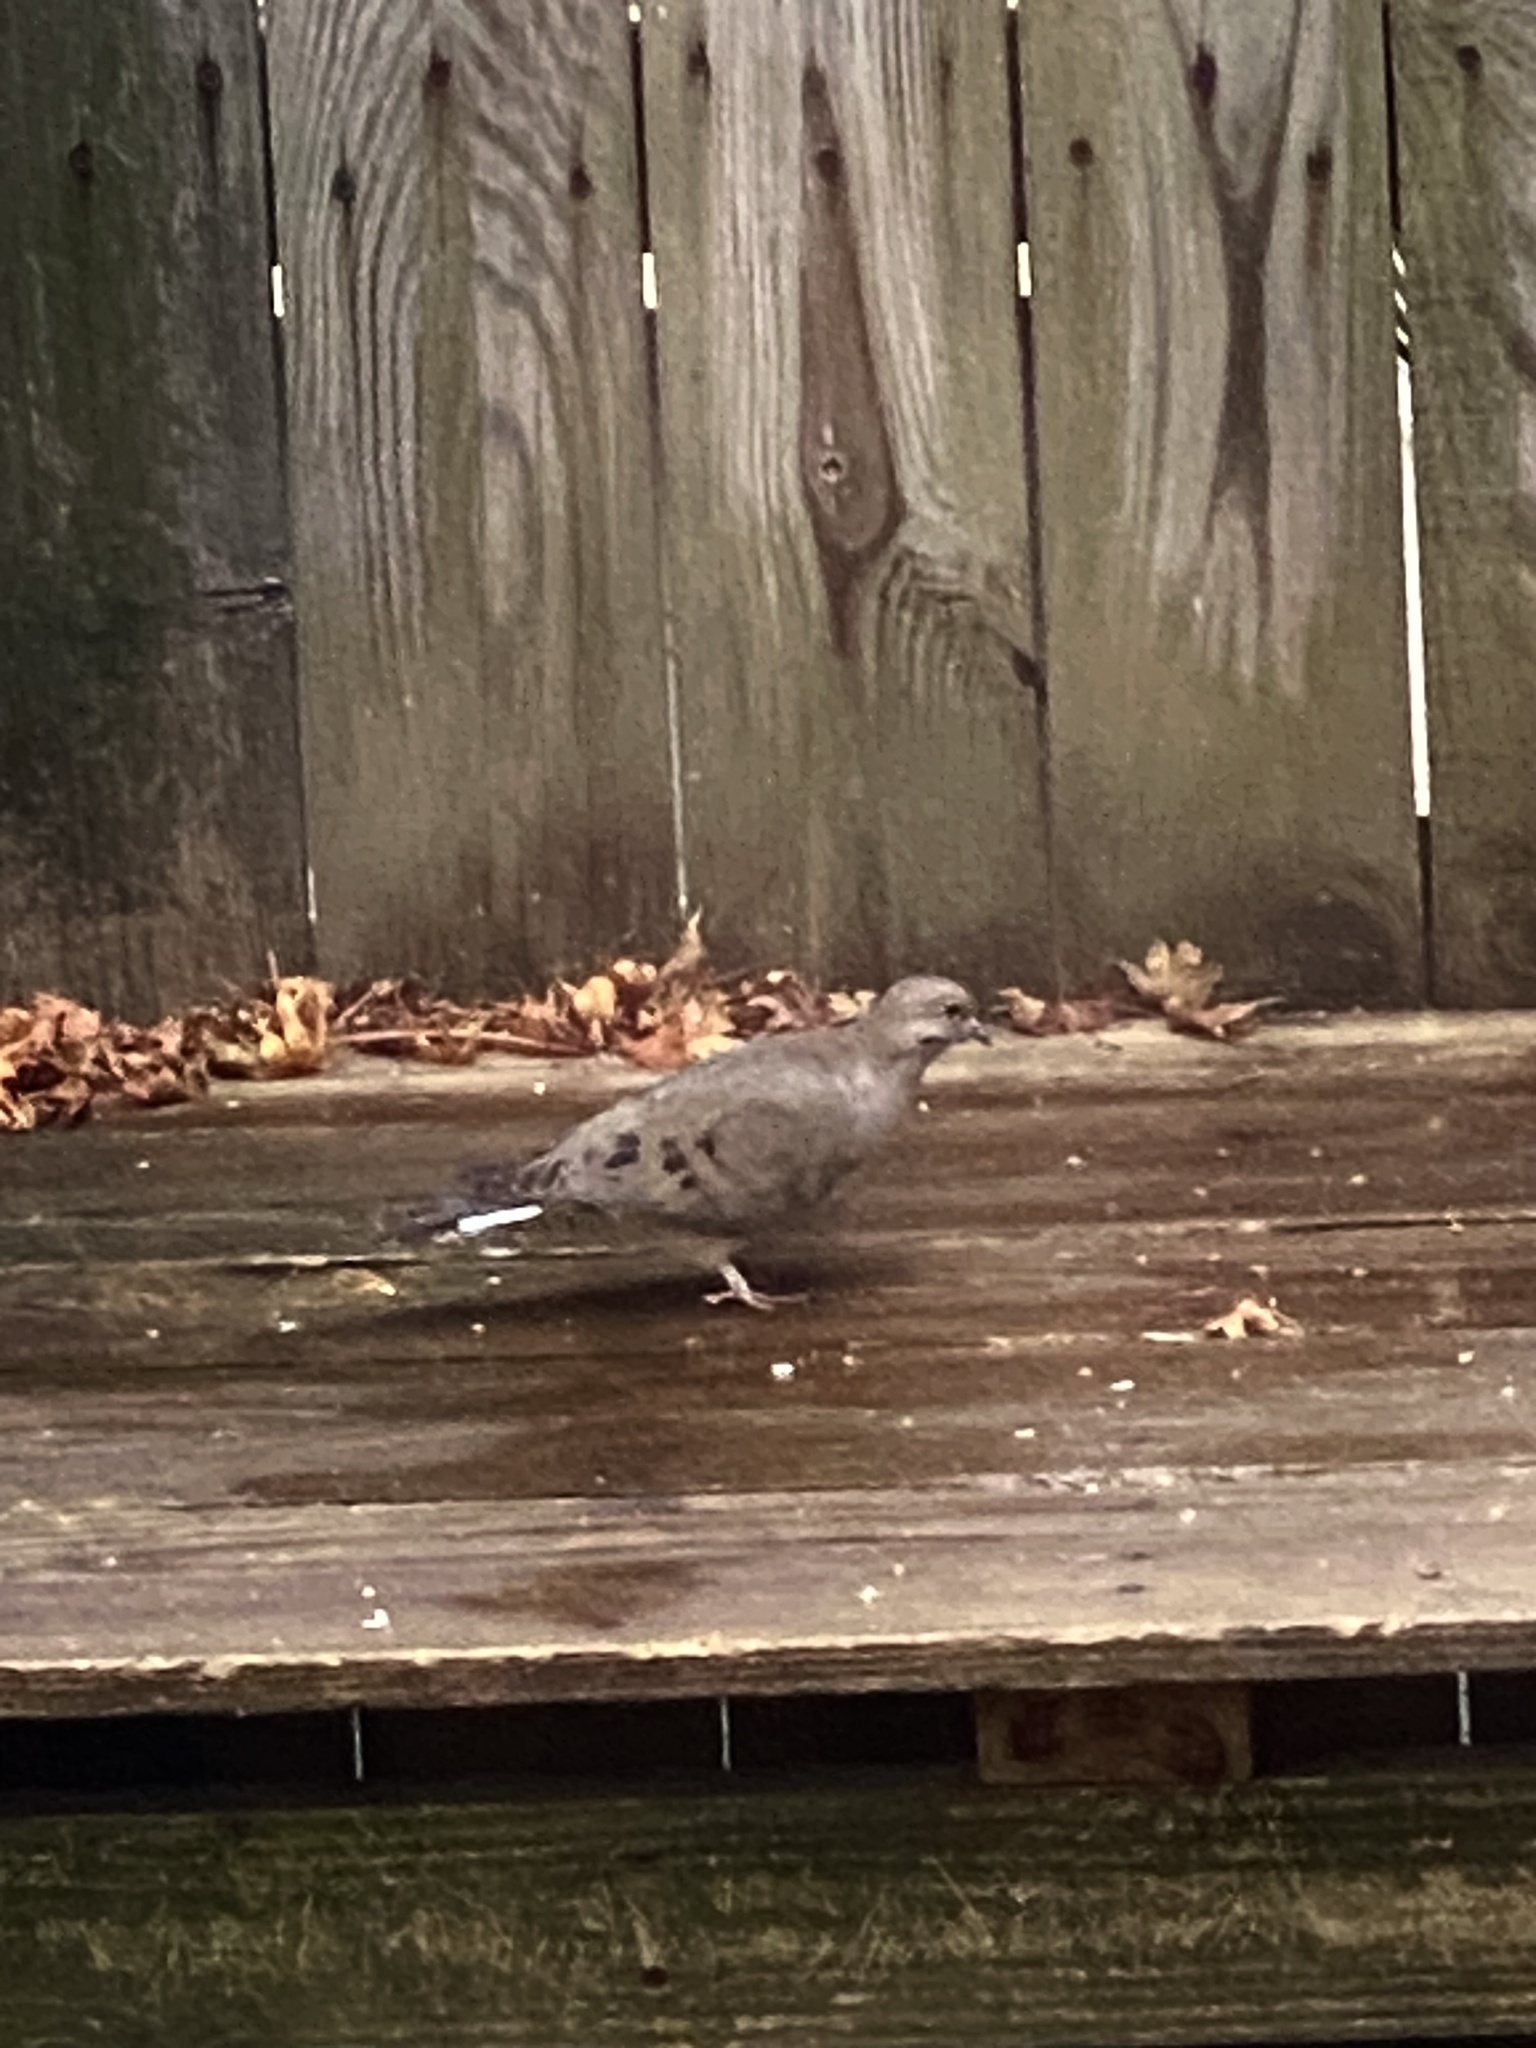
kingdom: Animalia
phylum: Chordata
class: Aves
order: Columbiformes
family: Columbidae
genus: Zenaida
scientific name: Zenaida macroura
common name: Mourning dove
